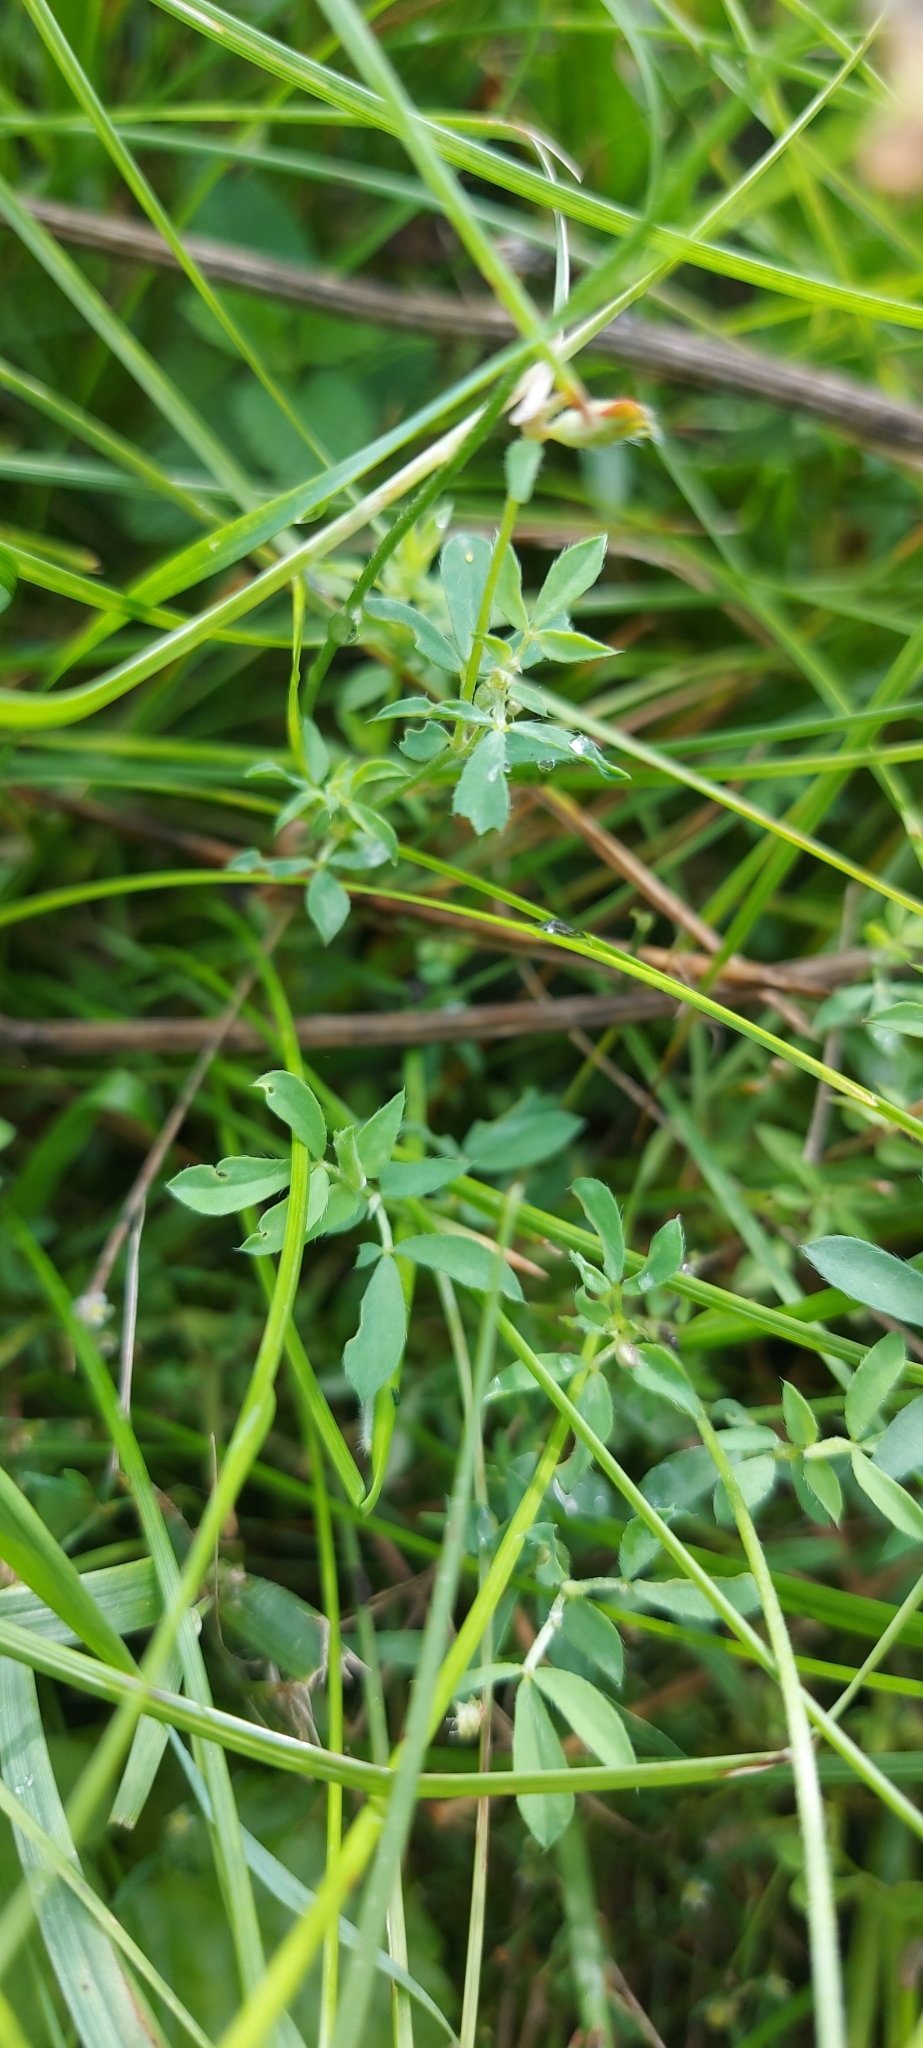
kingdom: Plantae
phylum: Tracheophyta
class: Magnoliopsida
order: Fabales
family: Fabaceae
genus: Lotus
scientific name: Lotus corniculatus
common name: Common bird's-foot-trefoil
